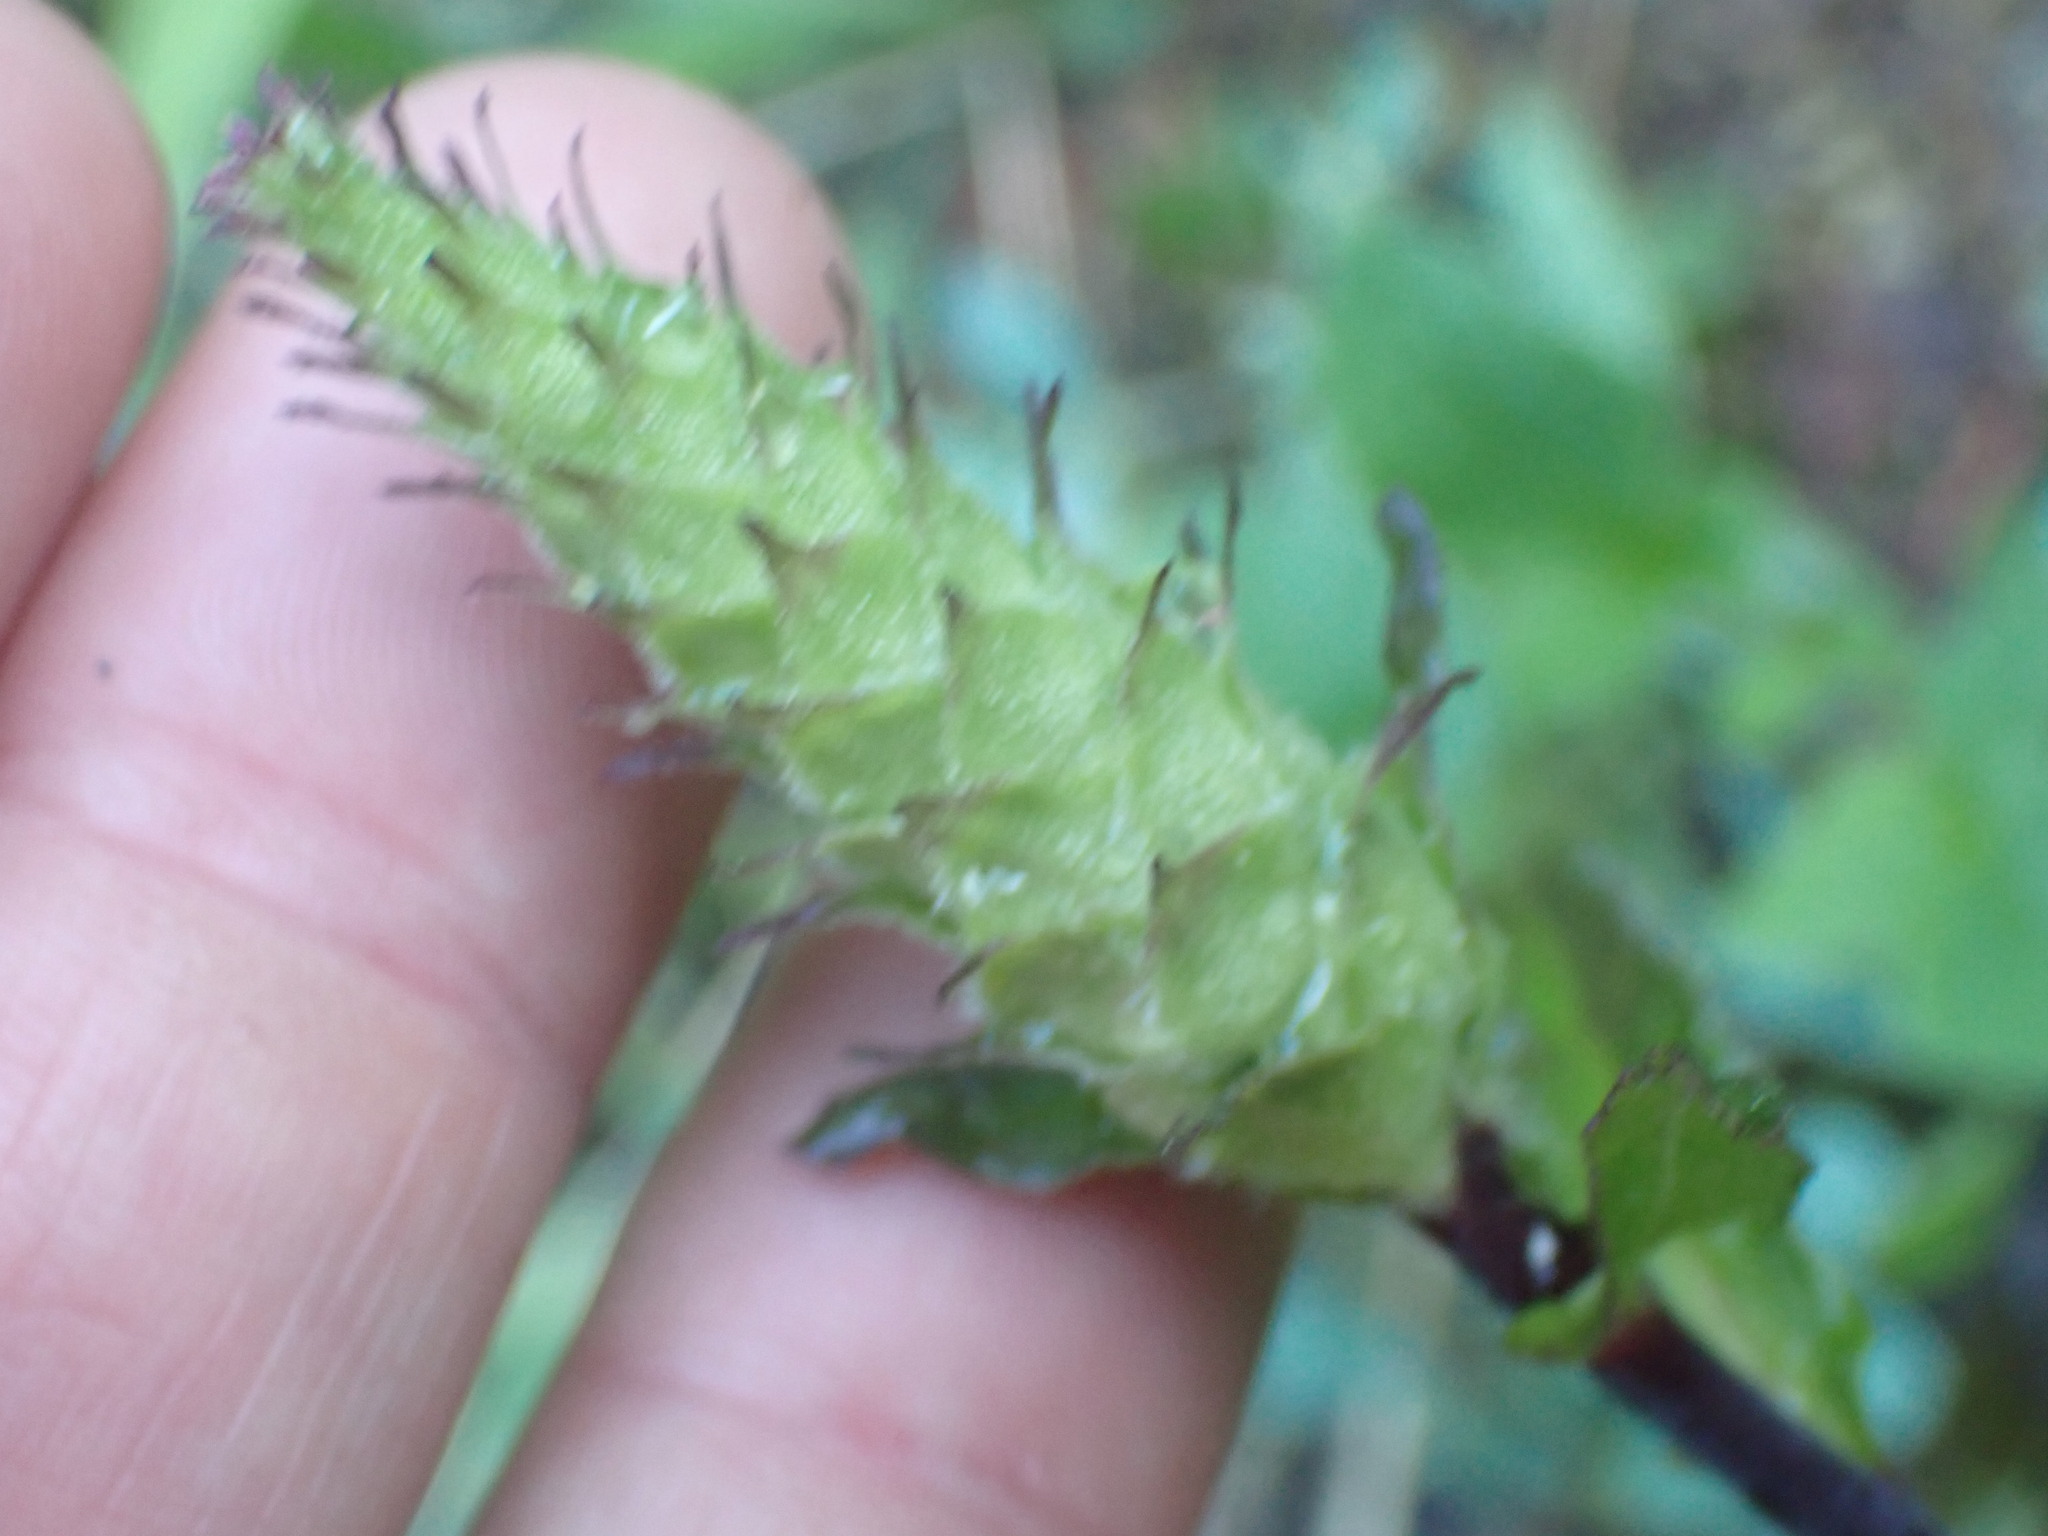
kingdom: Plantae
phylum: Tracheophyta
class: Magnoliopsida
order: Lamiales
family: Orobanchaceae
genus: Pedicularis
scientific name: Pedicularis bracteosa
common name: Bracted lousewort
